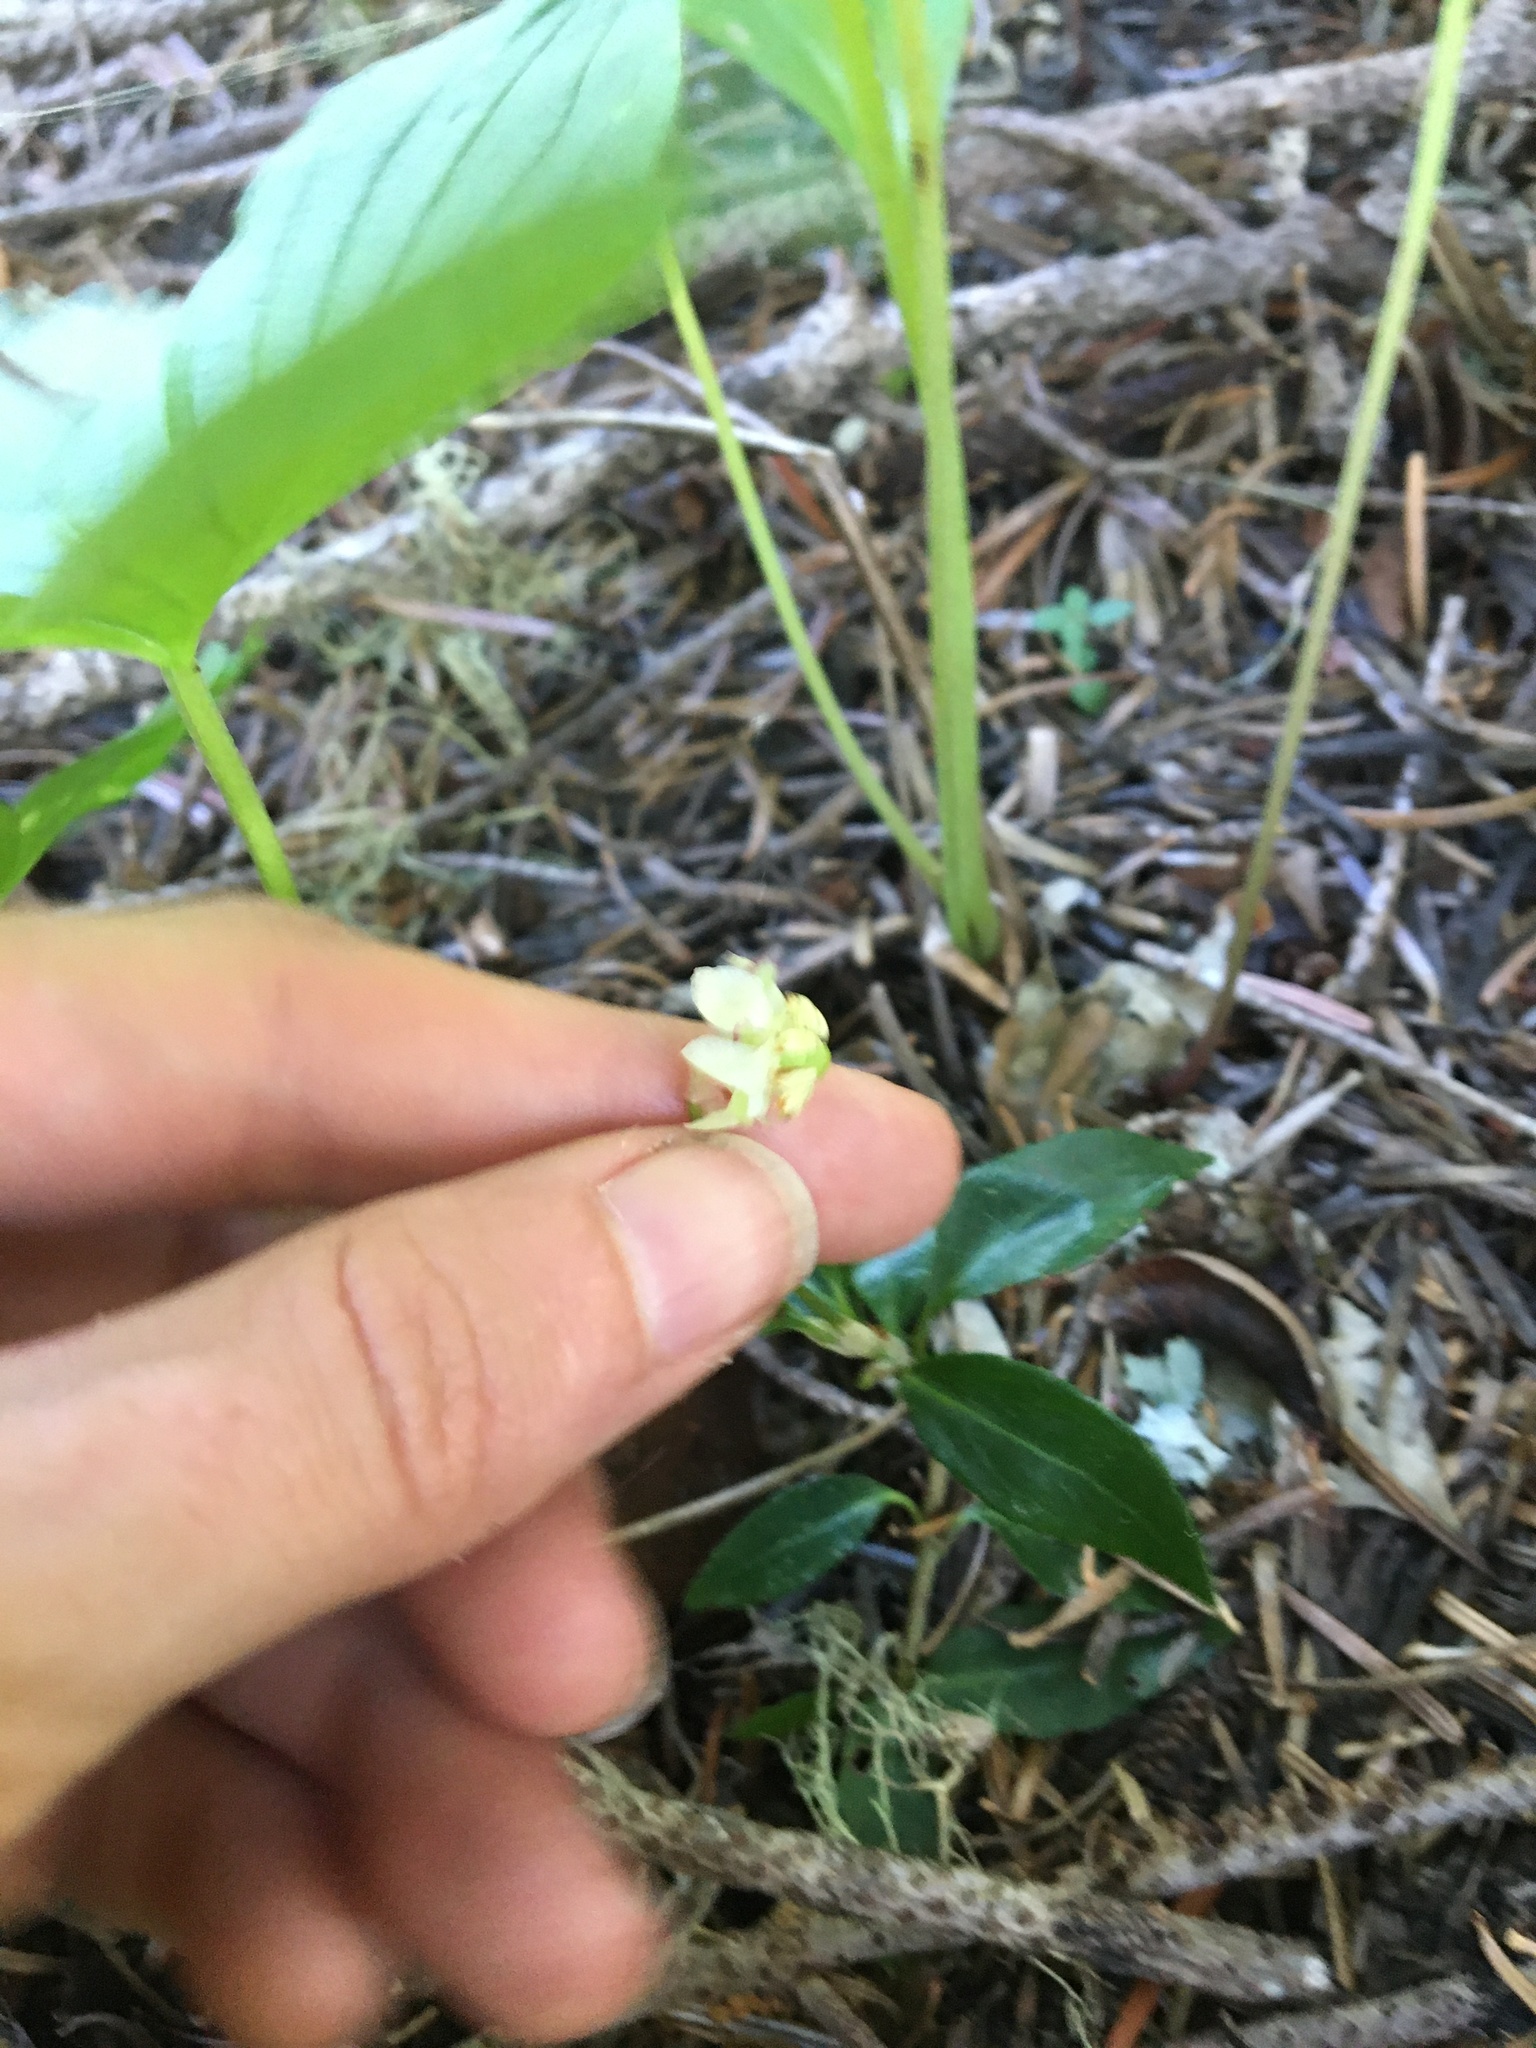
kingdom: Plantae
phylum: Tracheophyta
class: Magnoliopsida
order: Ericales
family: Ericaceae
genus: Chimaphila
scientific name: Chimaphila menziesii
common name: Menzies' pipsissewa
